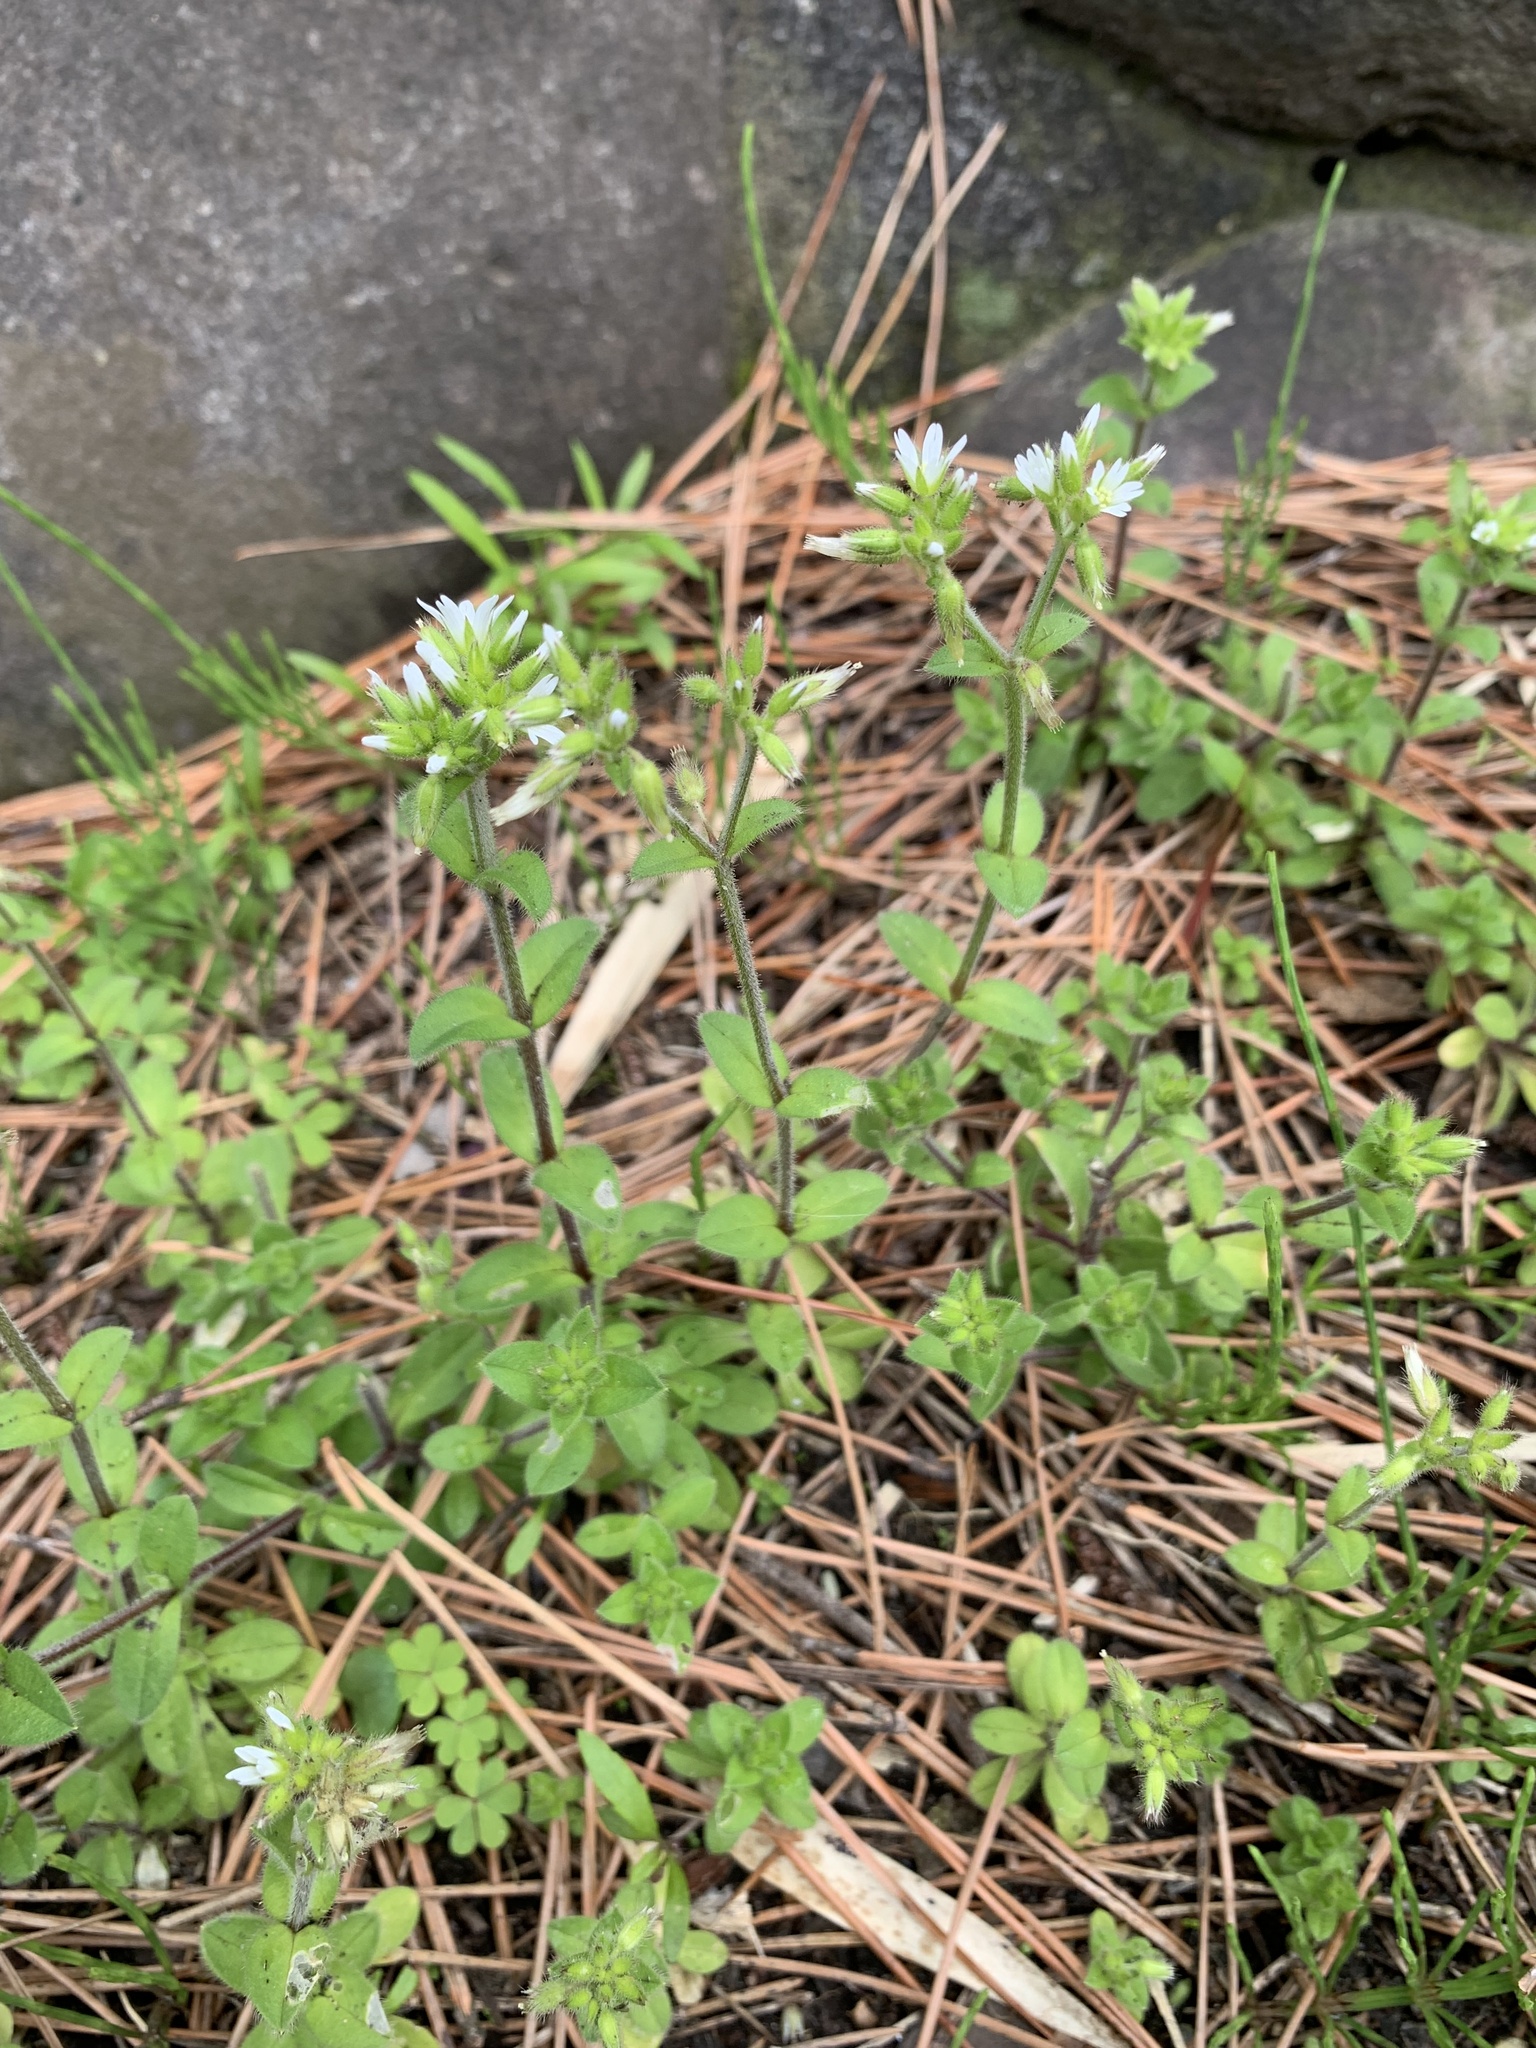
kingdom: Plantae
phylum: Tracheophyta
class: Magnoliopsida
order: Caryophyllales
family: Caryophyllaceae
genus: Cerastium
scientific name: Cerastium glomeratum
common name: Sticky chickweed
